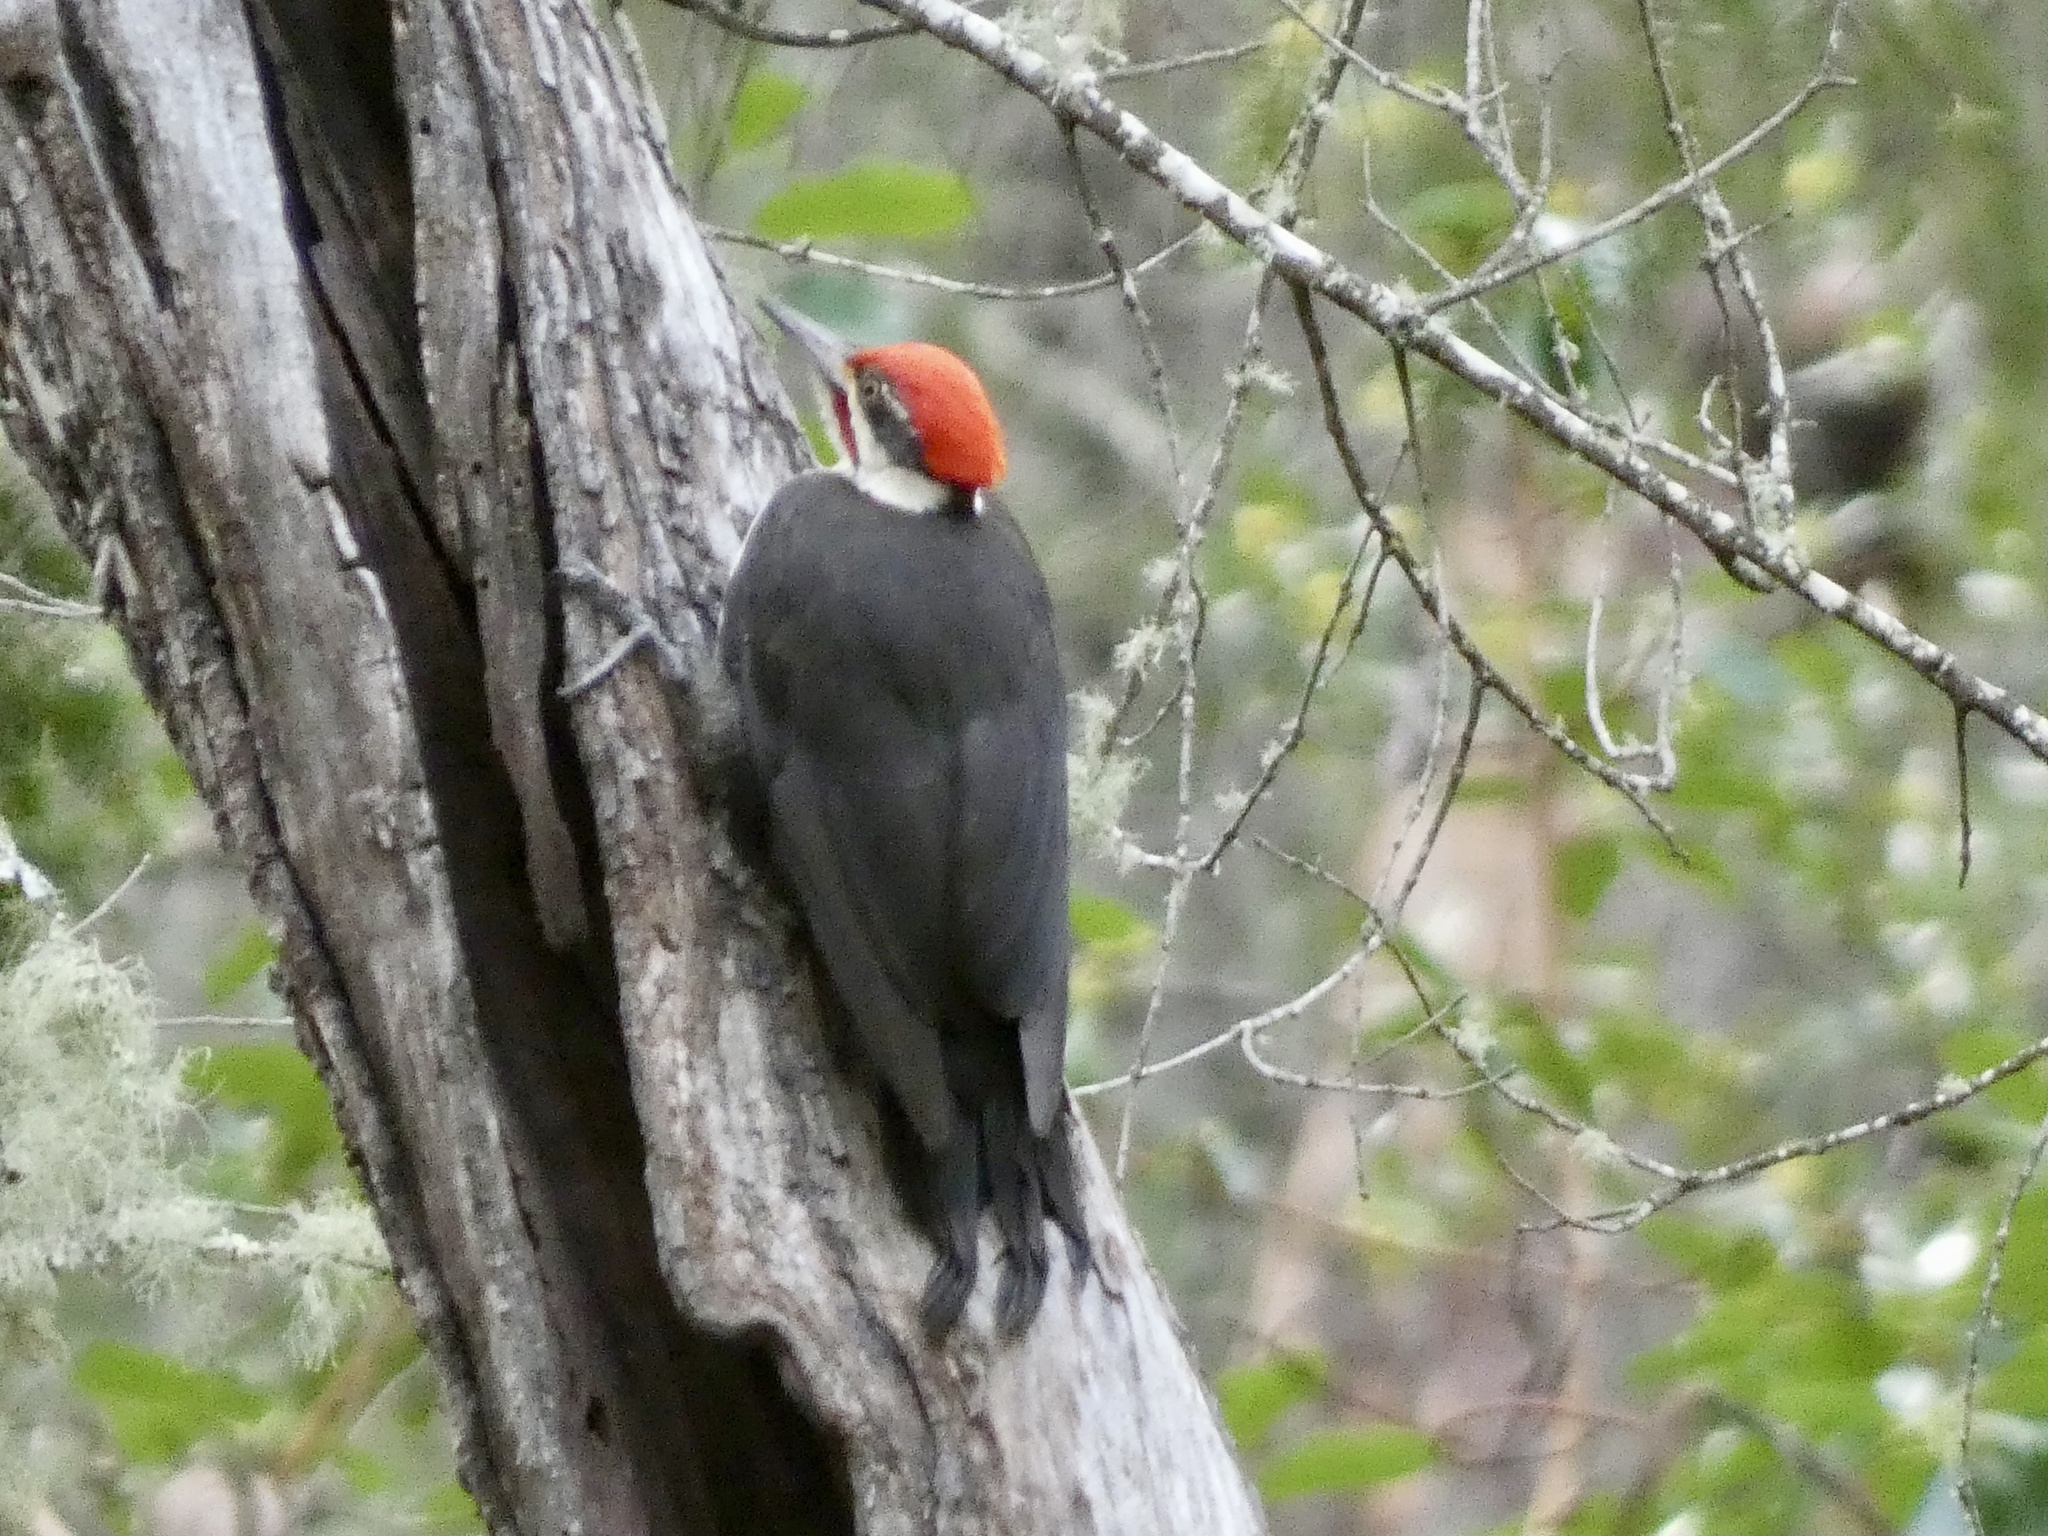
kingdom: Animalia
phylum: Chordata
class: Aves
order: Piciformes
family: Picidae
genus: Dryocopus
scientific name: Dryocopus pileatus
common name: Pileated woodpecker
